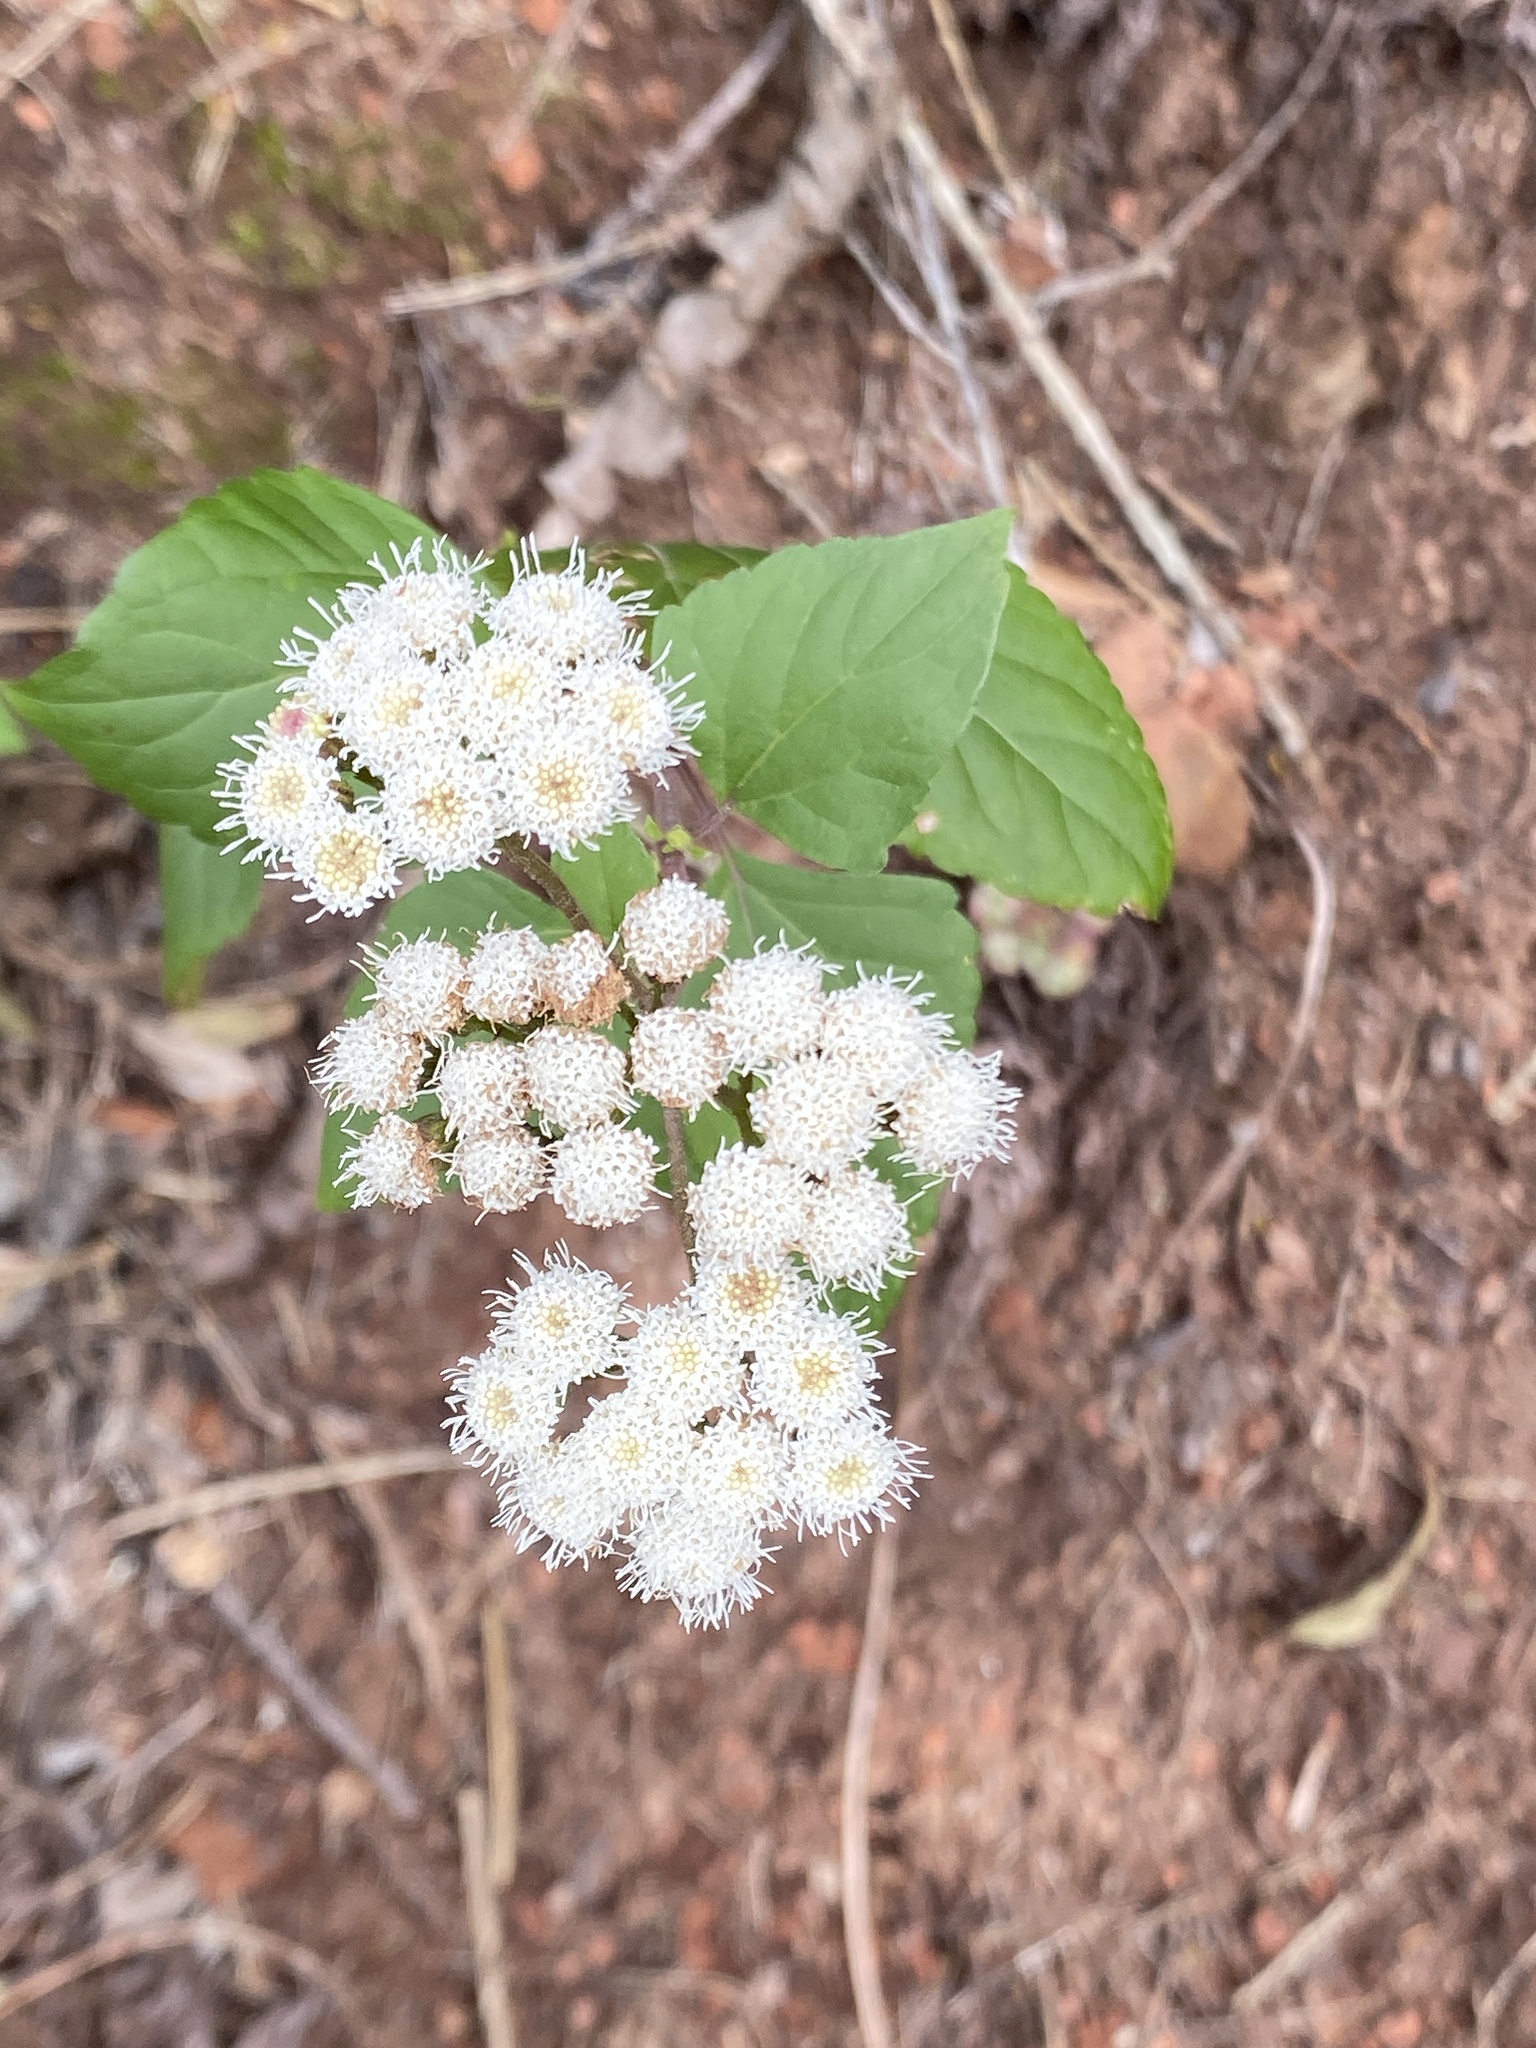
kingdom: Plantae
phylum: Tracheophyta
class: Magnoliopsida
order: Asterales
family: Asteraceae
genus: Ageratina
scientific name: Ageratina adenophora
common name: Sticky snakeroot
